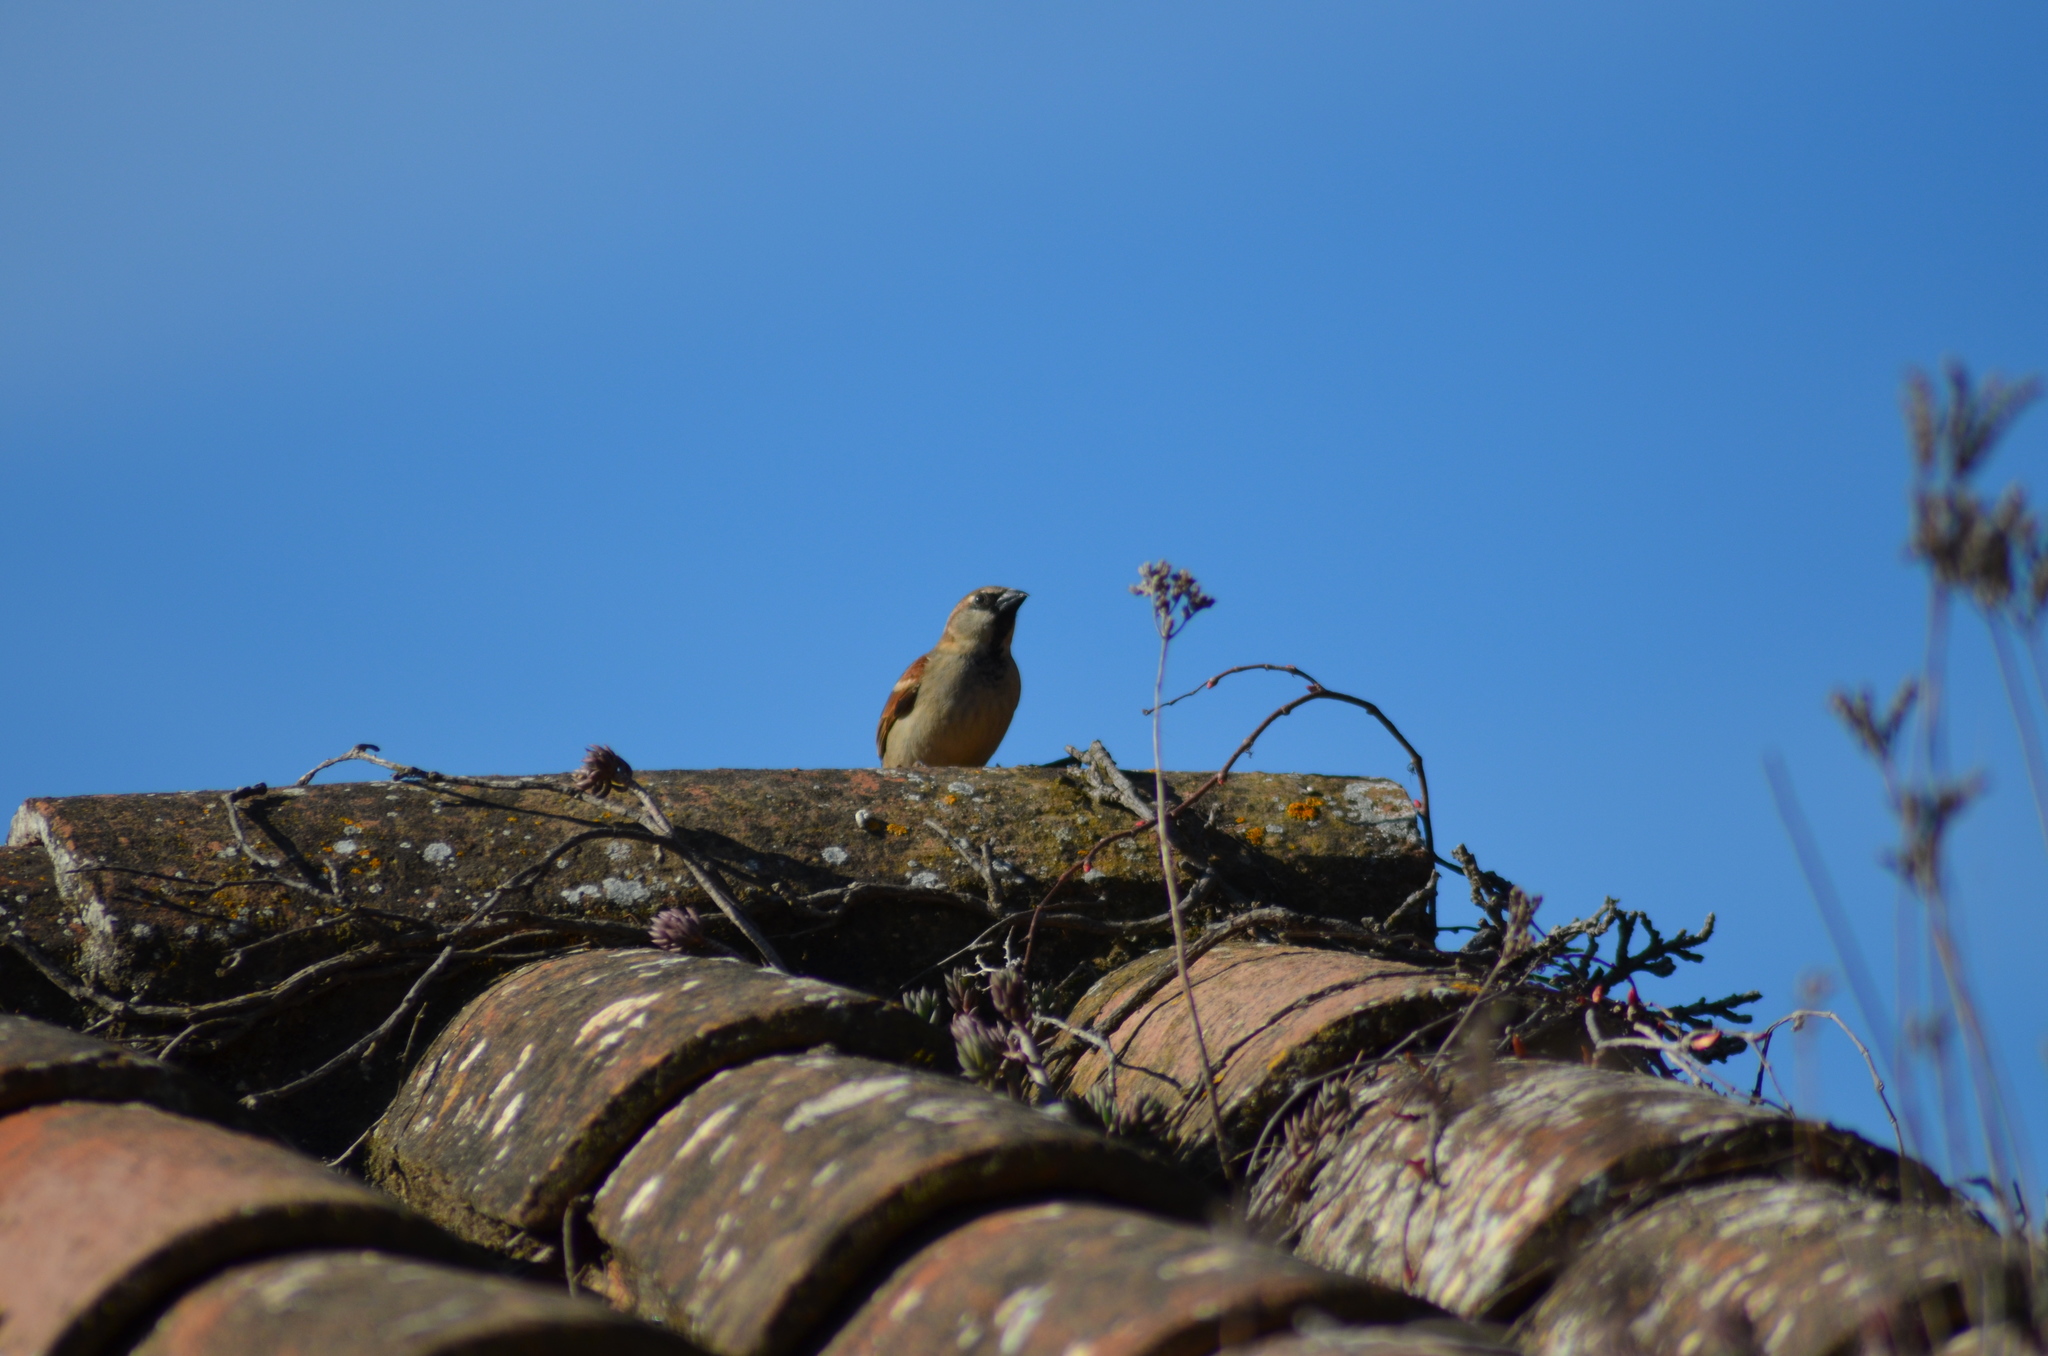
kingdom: Animalia
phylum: Chordata
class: Aves
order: Passeriformes
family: Passeridae
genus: Passer
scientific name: Passer domesticus
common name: House sparrow
